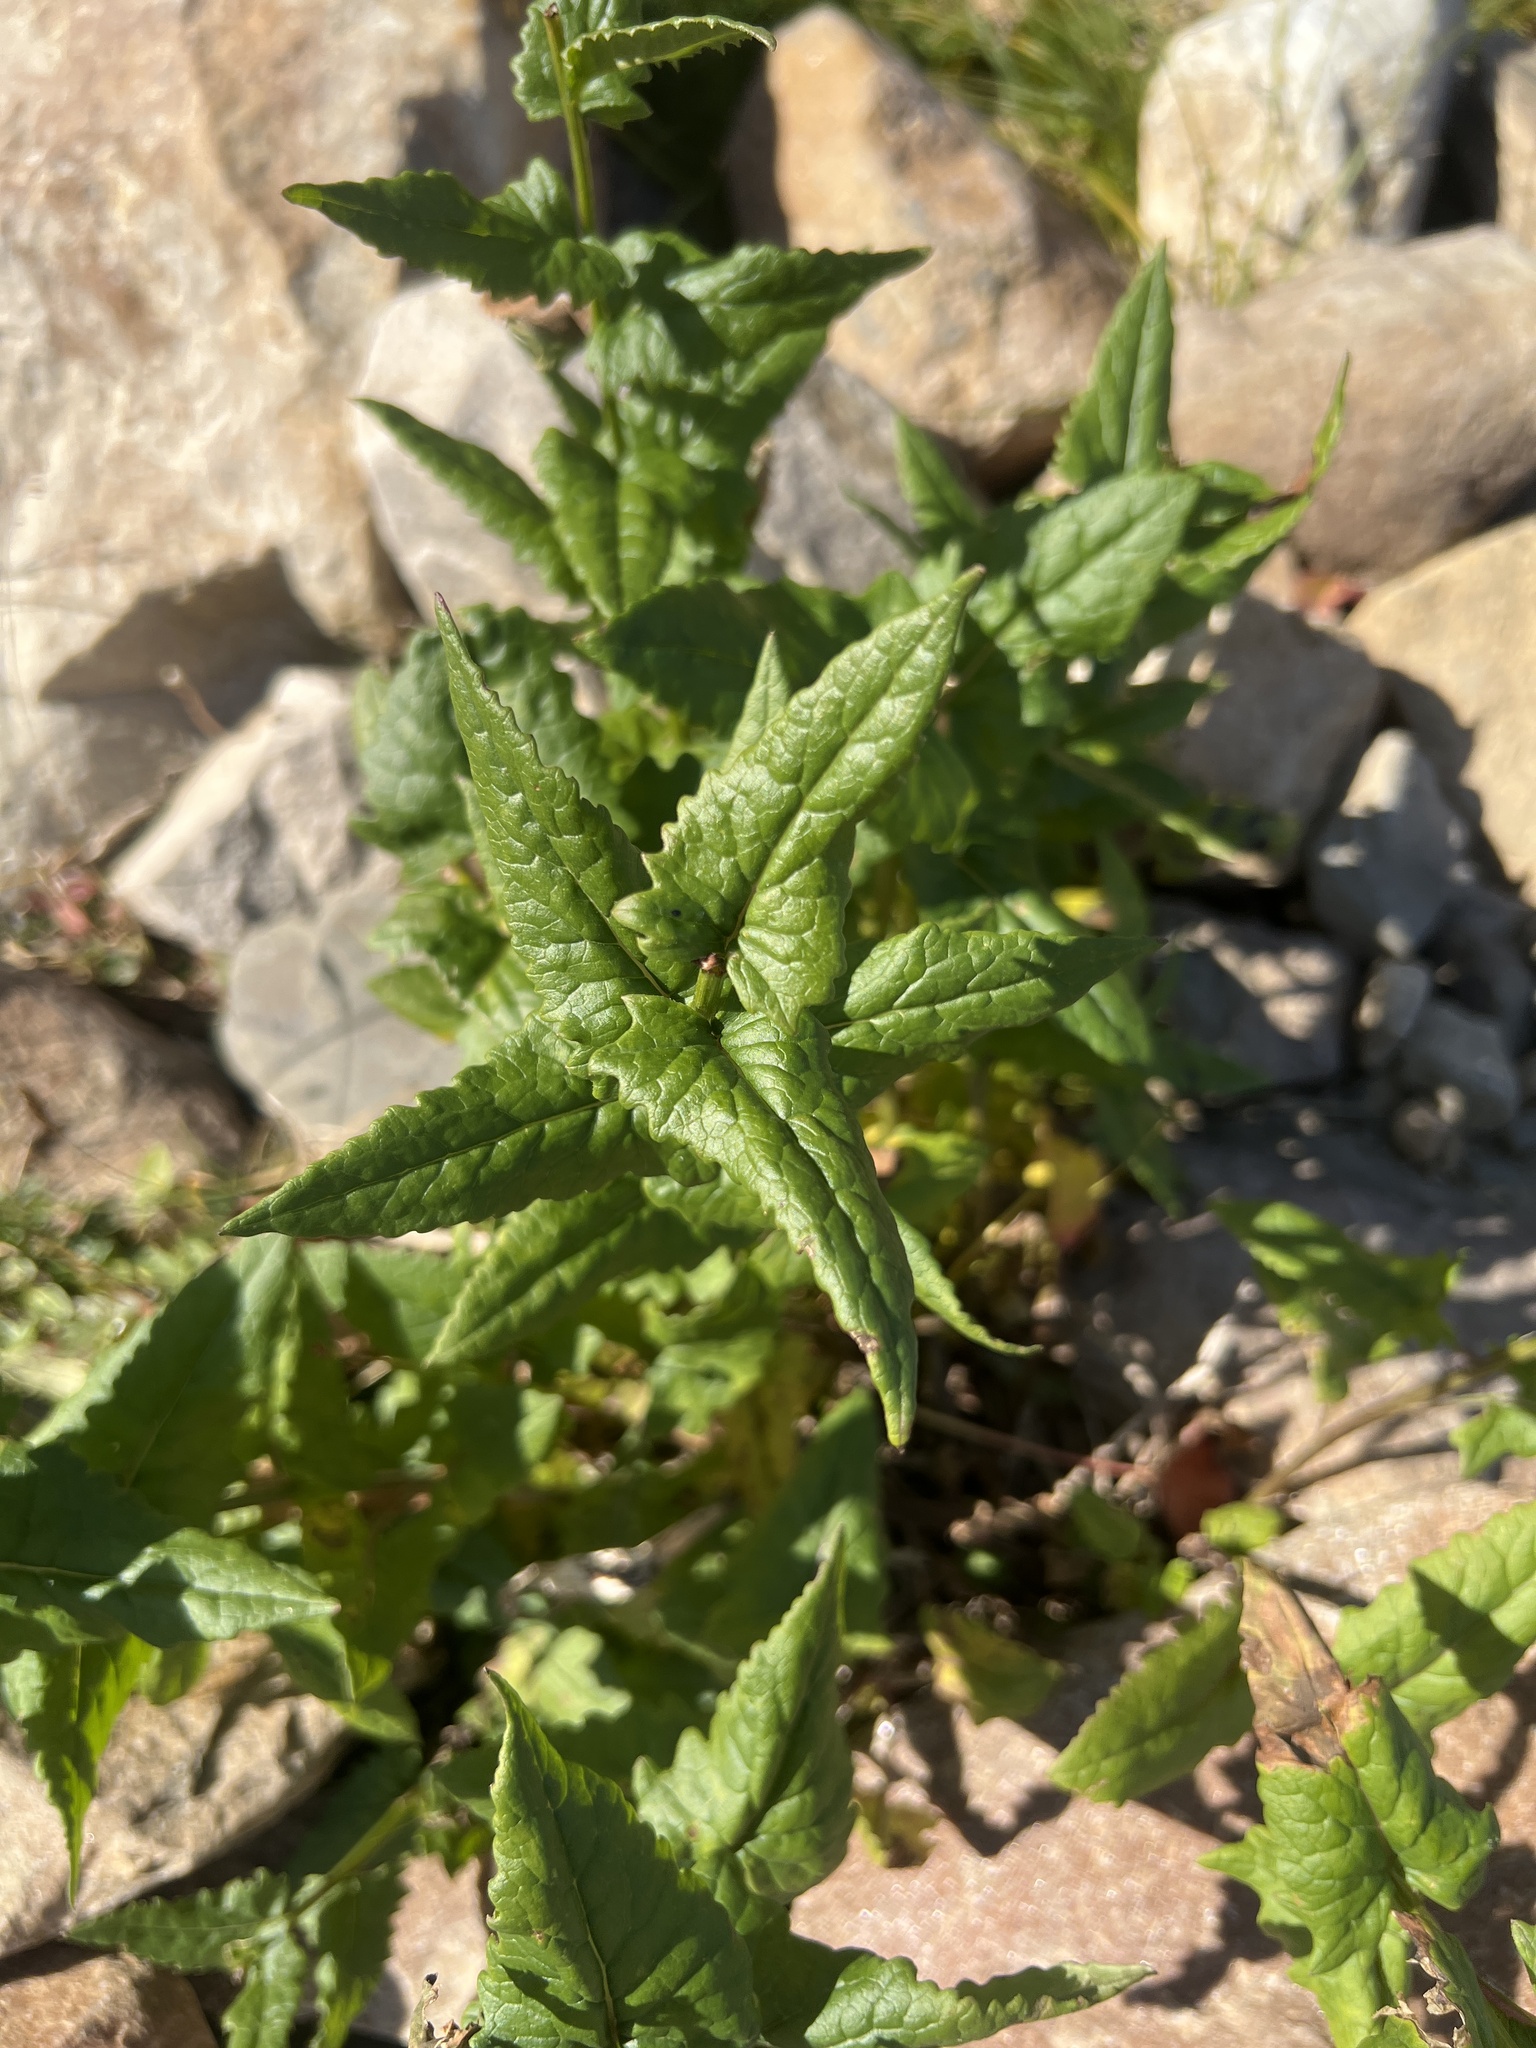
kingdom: Plantae
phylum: Tracheophyta
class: Magnoliopsida
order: Asterales
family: Asteraceae
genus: Senecio
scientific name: Senecio triangularis
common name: Arrowleaf butterweed
